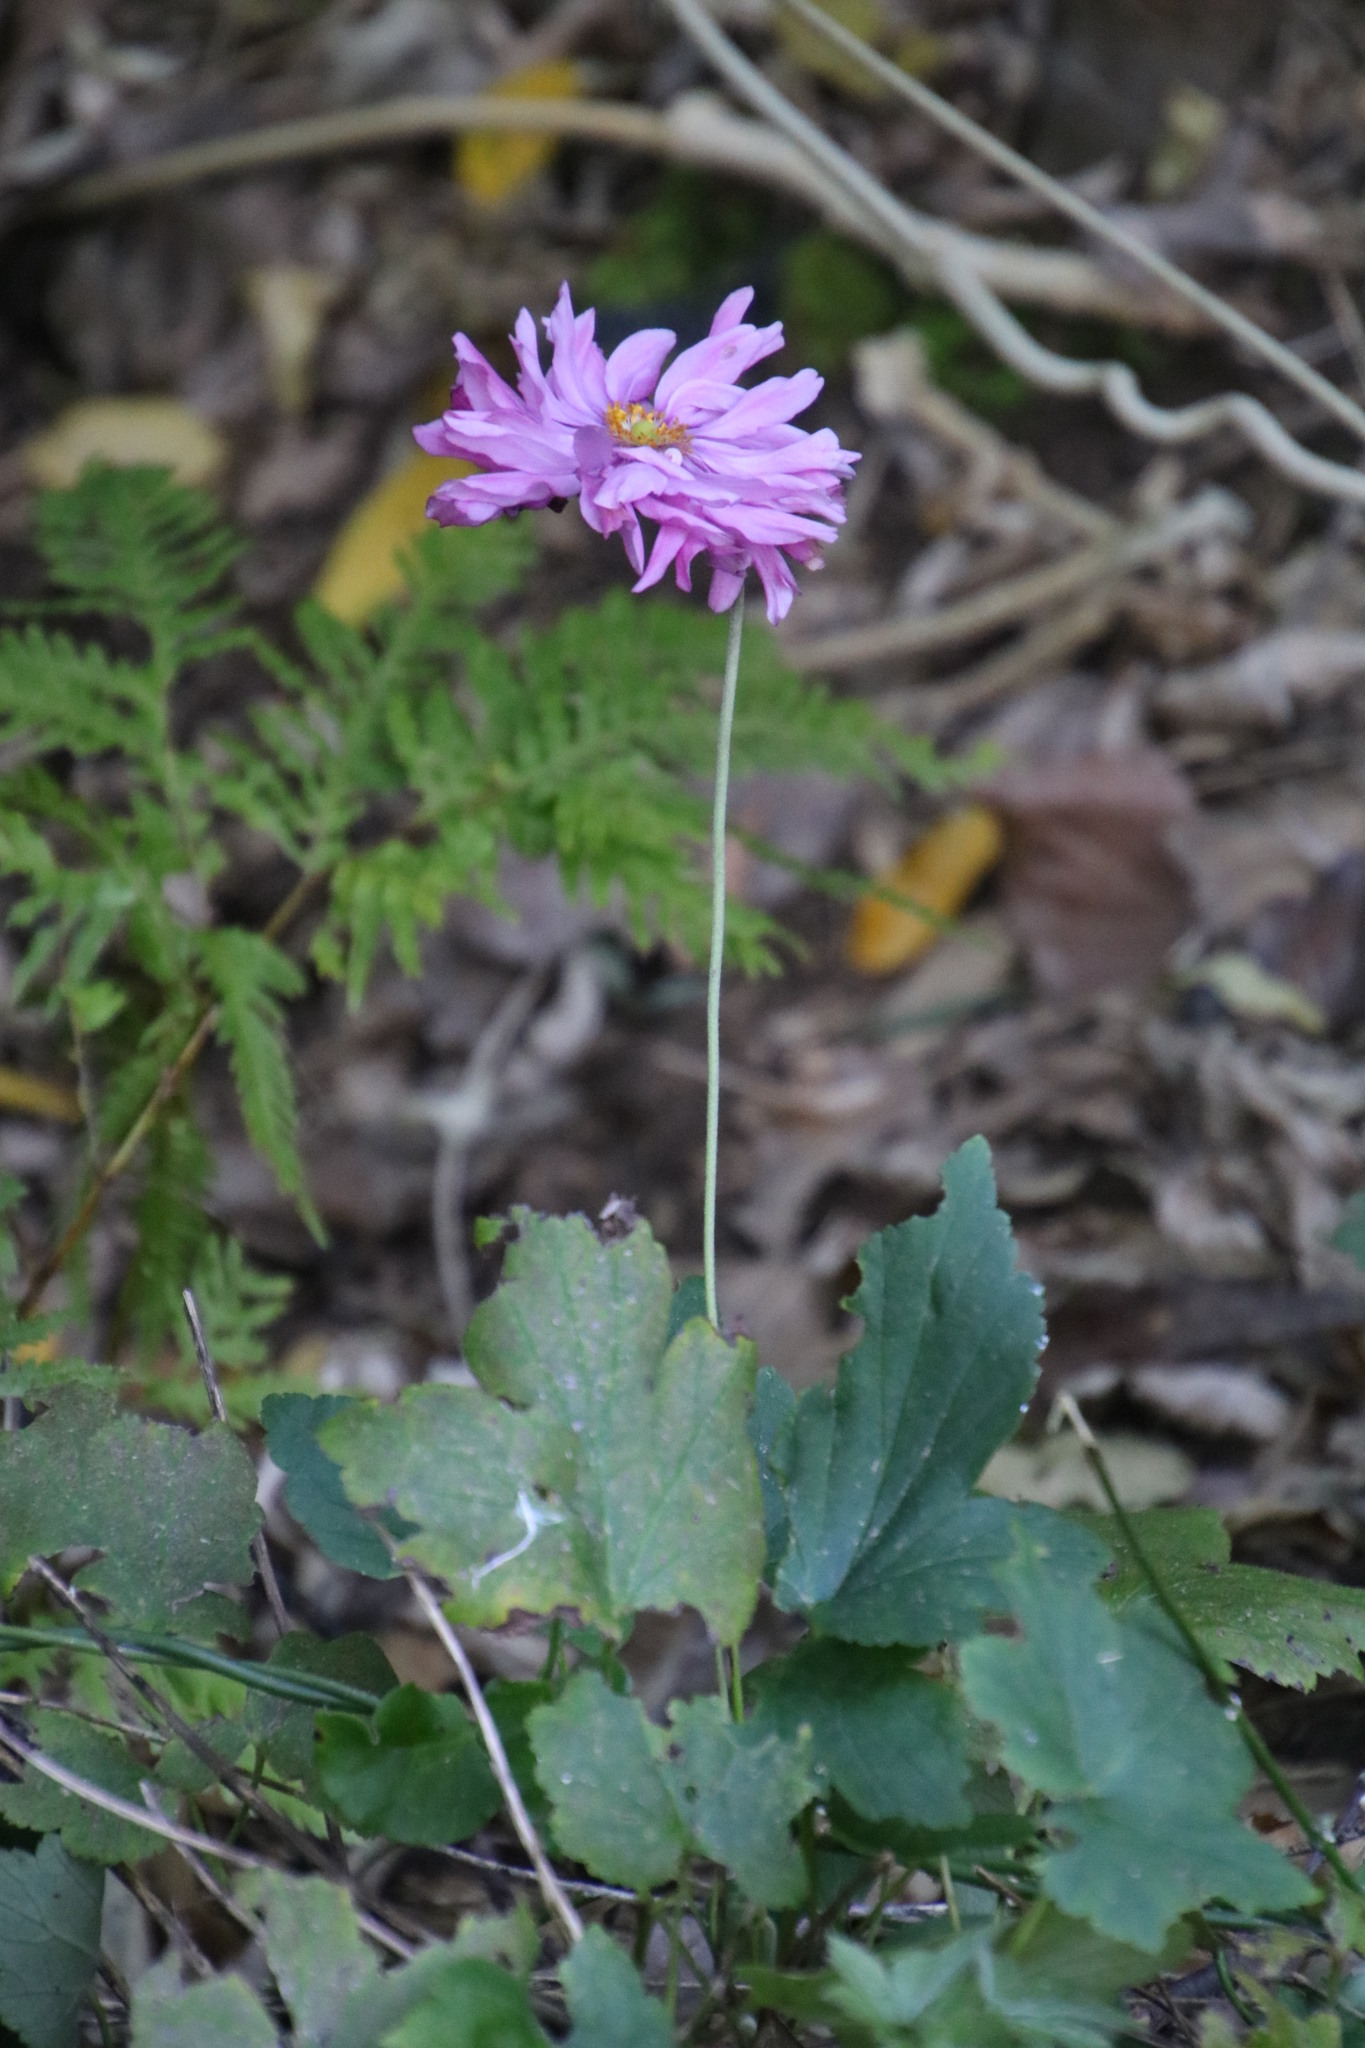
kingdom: Plantae
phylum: Tracheophyta
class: Magnoliopsida
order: Ranunculales
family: Ranunculaceae
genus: Eriocapitella
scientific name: Eriocapitella hupehensis
